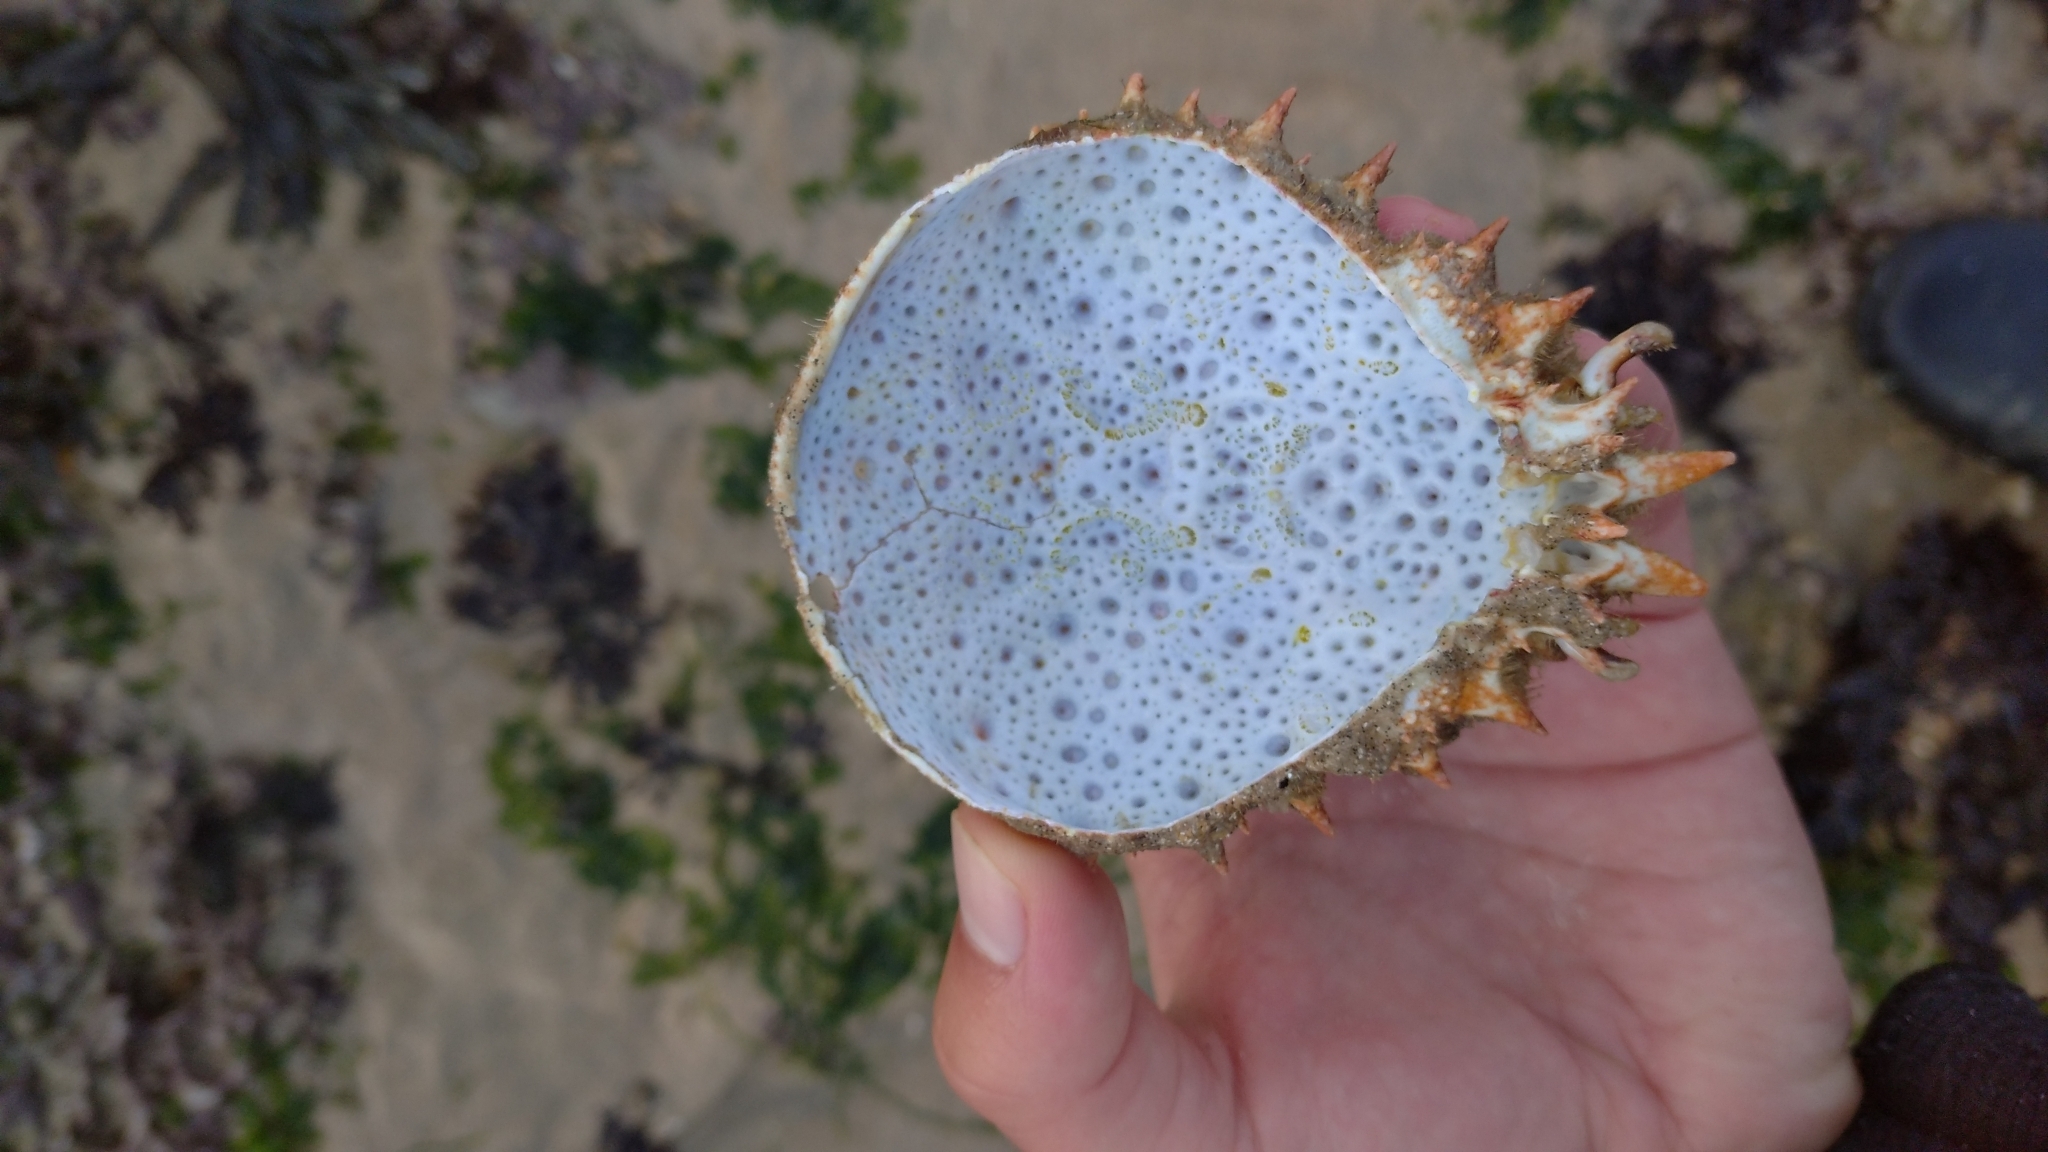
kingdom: Animalia
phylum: Arthropoda
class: Malacostraca
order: Decapoda
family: Majidae
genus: Maja
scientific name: Maja brachydactyla
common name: Common spider crab
